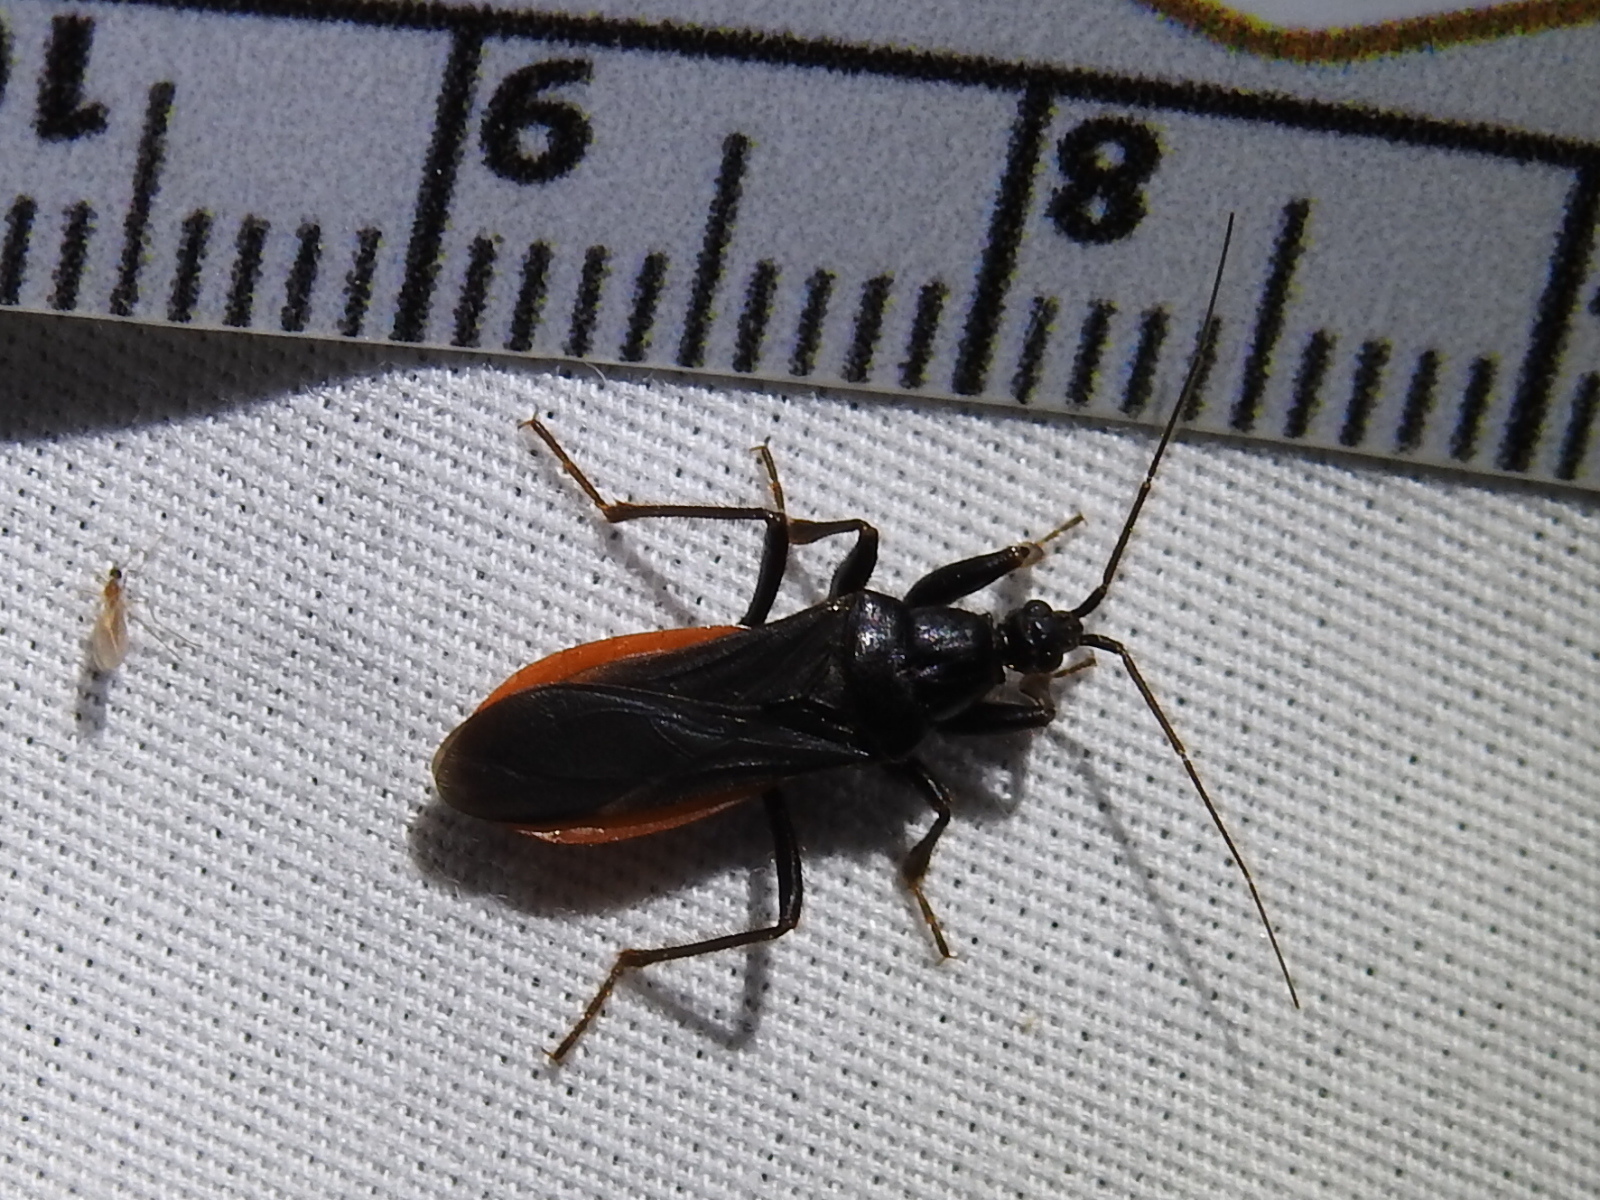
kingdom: Animalia
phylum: Arthropoda
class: Insecta
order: Hemiptera
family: Reduviidae
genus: Melanolestes
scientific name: Melanolestes picipes
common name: Assassin bug
